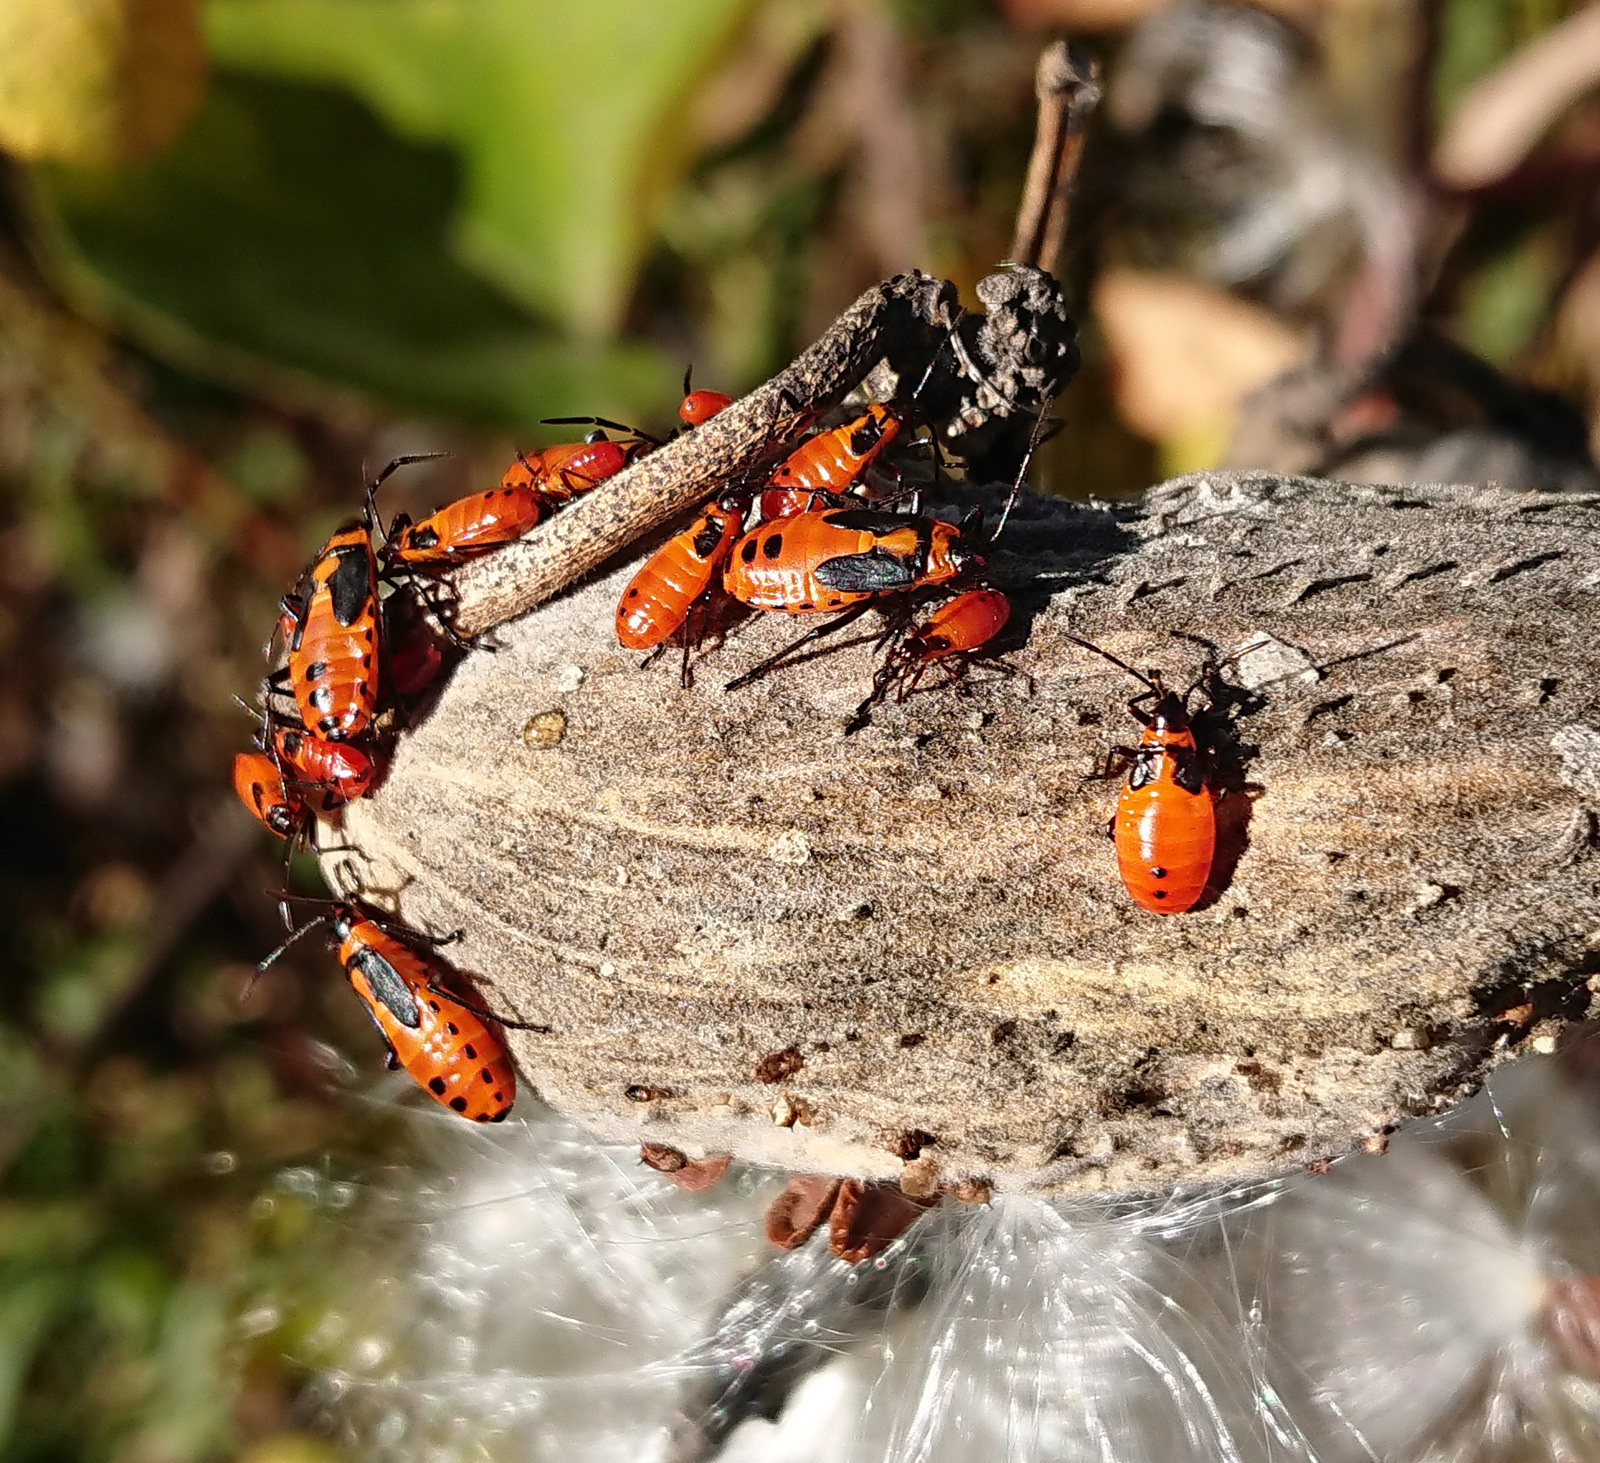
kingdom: Animalia
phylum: Arthropoda
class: Insecta
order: Hemiptera
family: Lygaeidae
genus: Oncopeltus
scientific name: Oncopeltus fasciatus
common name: Large milkweed bug
